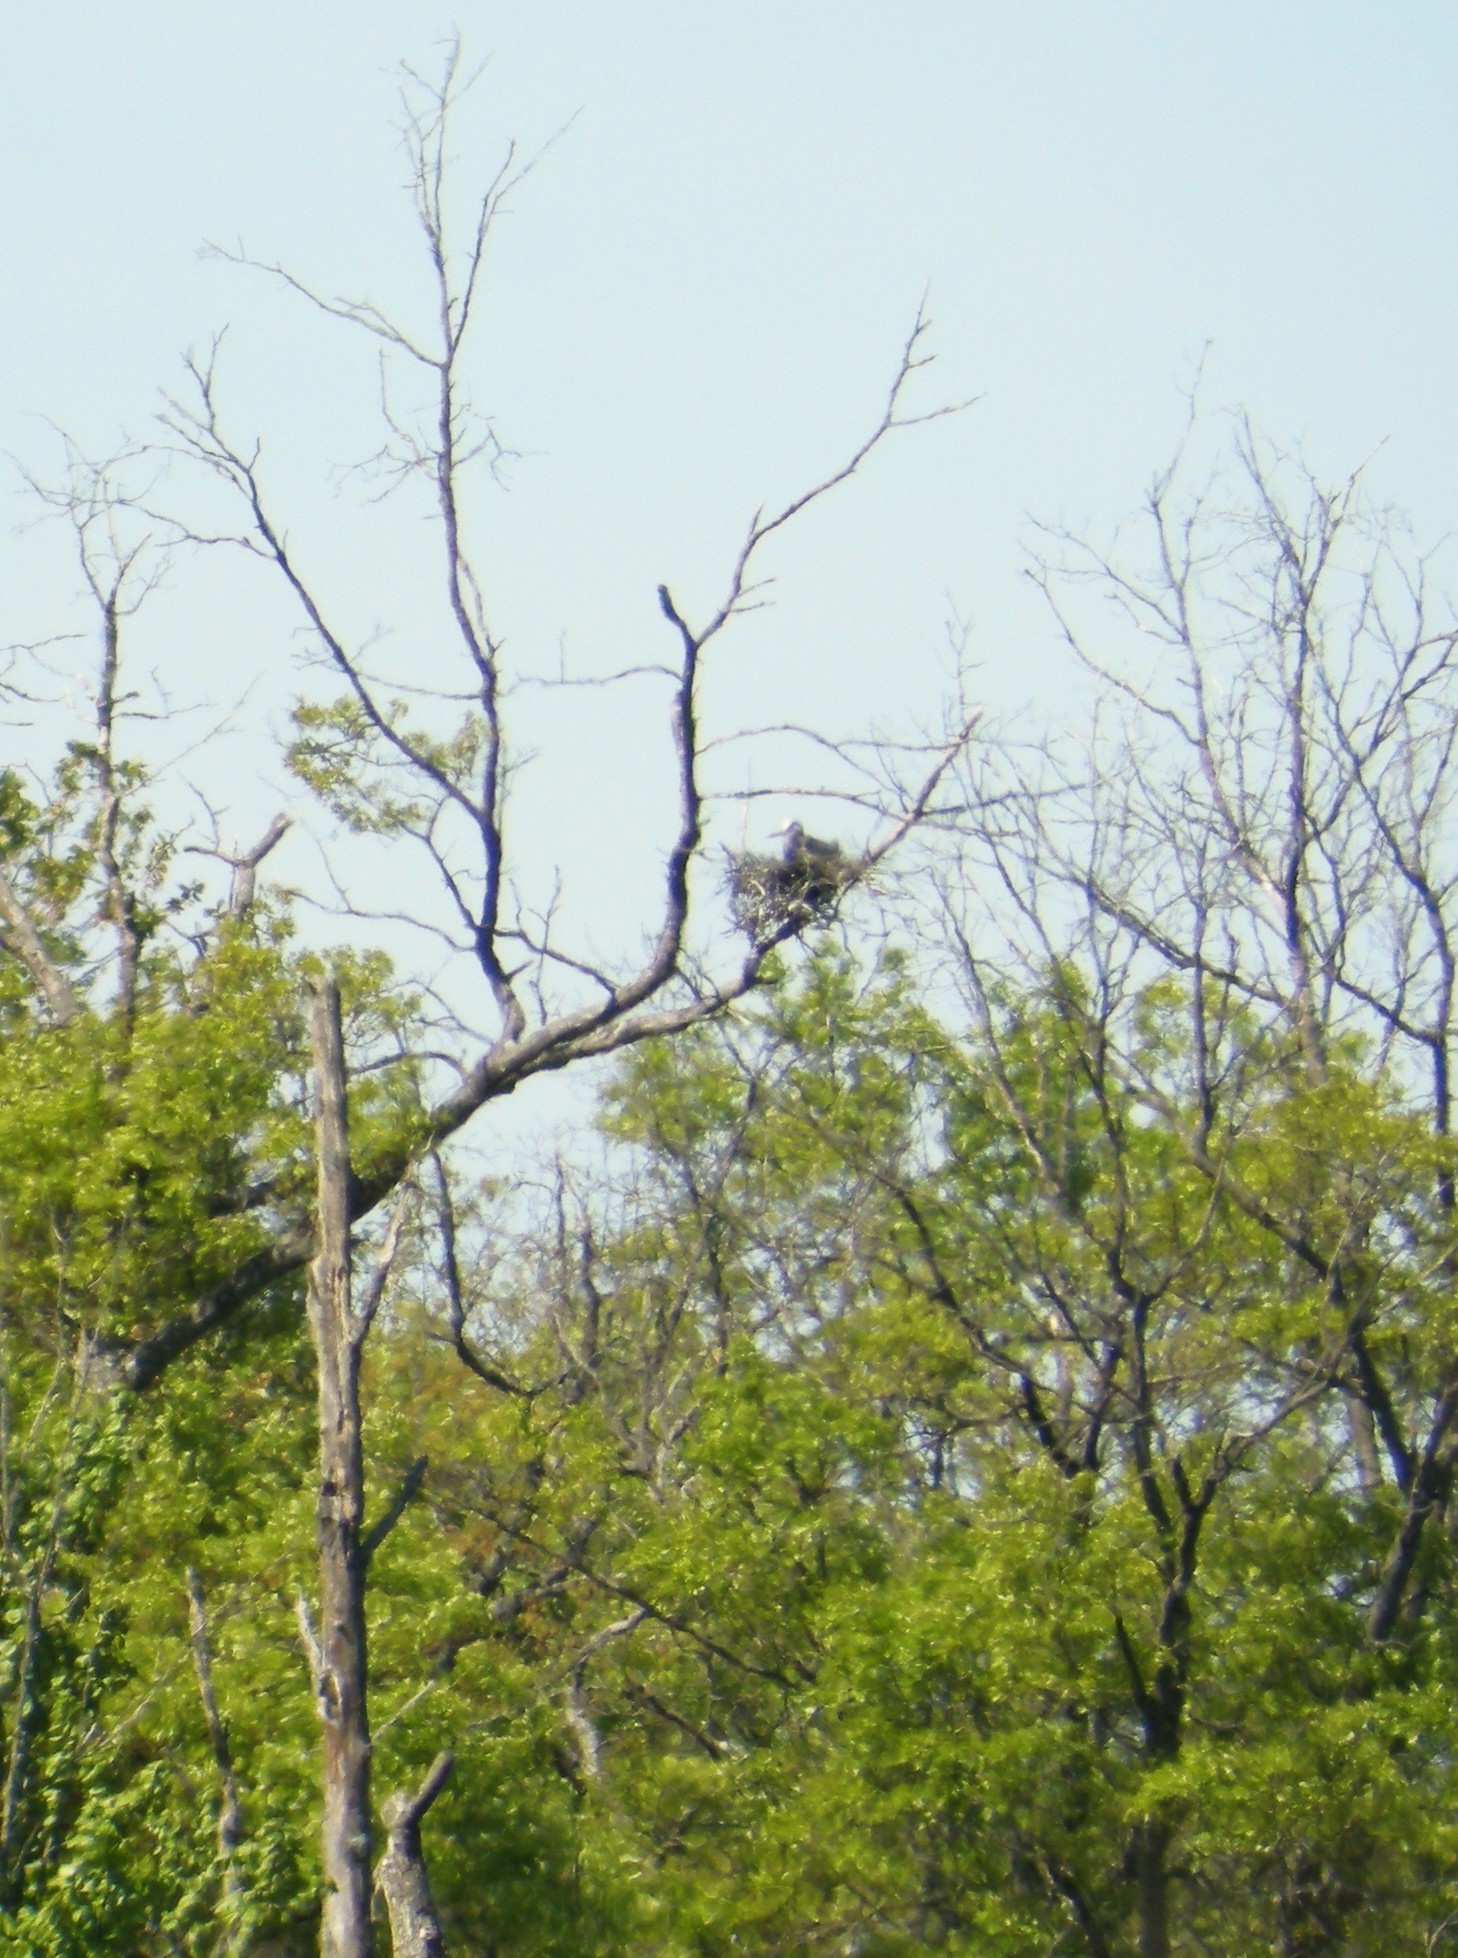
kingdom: Animalia
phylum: Chordata
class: Aves
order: Pelecaniformes
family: Ardeidae
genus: Ardea
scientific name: Ardea herodias
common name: Great blue heron
